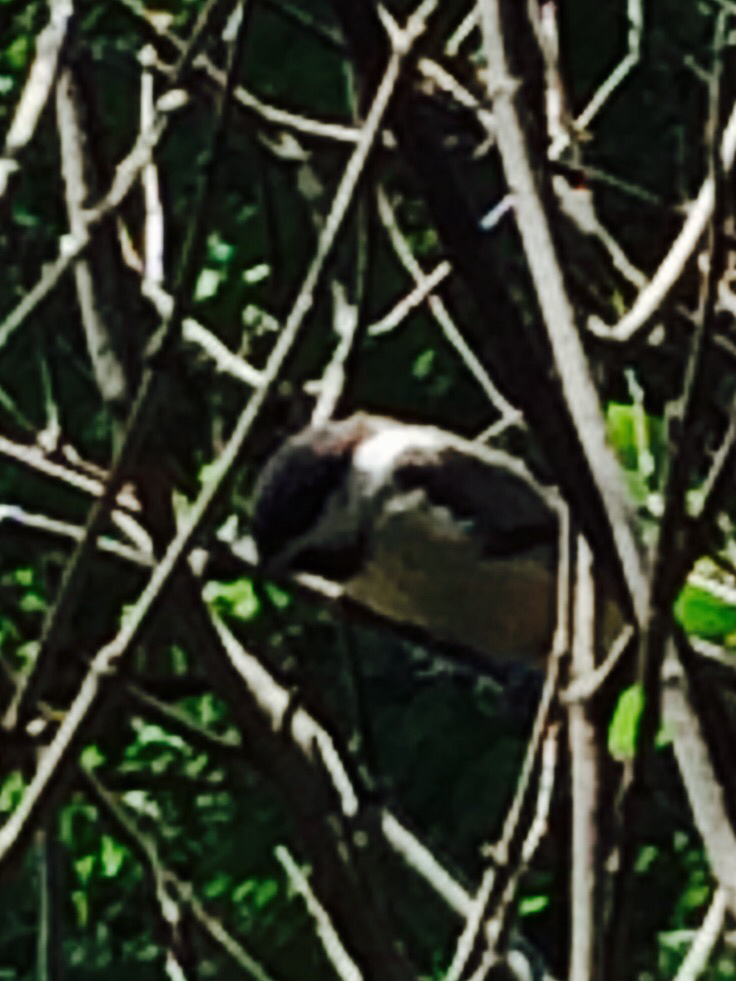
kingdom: Animalia
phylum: Chordata
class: Aves
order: Passeriformes
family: Paridae
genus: Poecile
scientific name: Poecile atricapillus
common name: Black-capped chickadee
